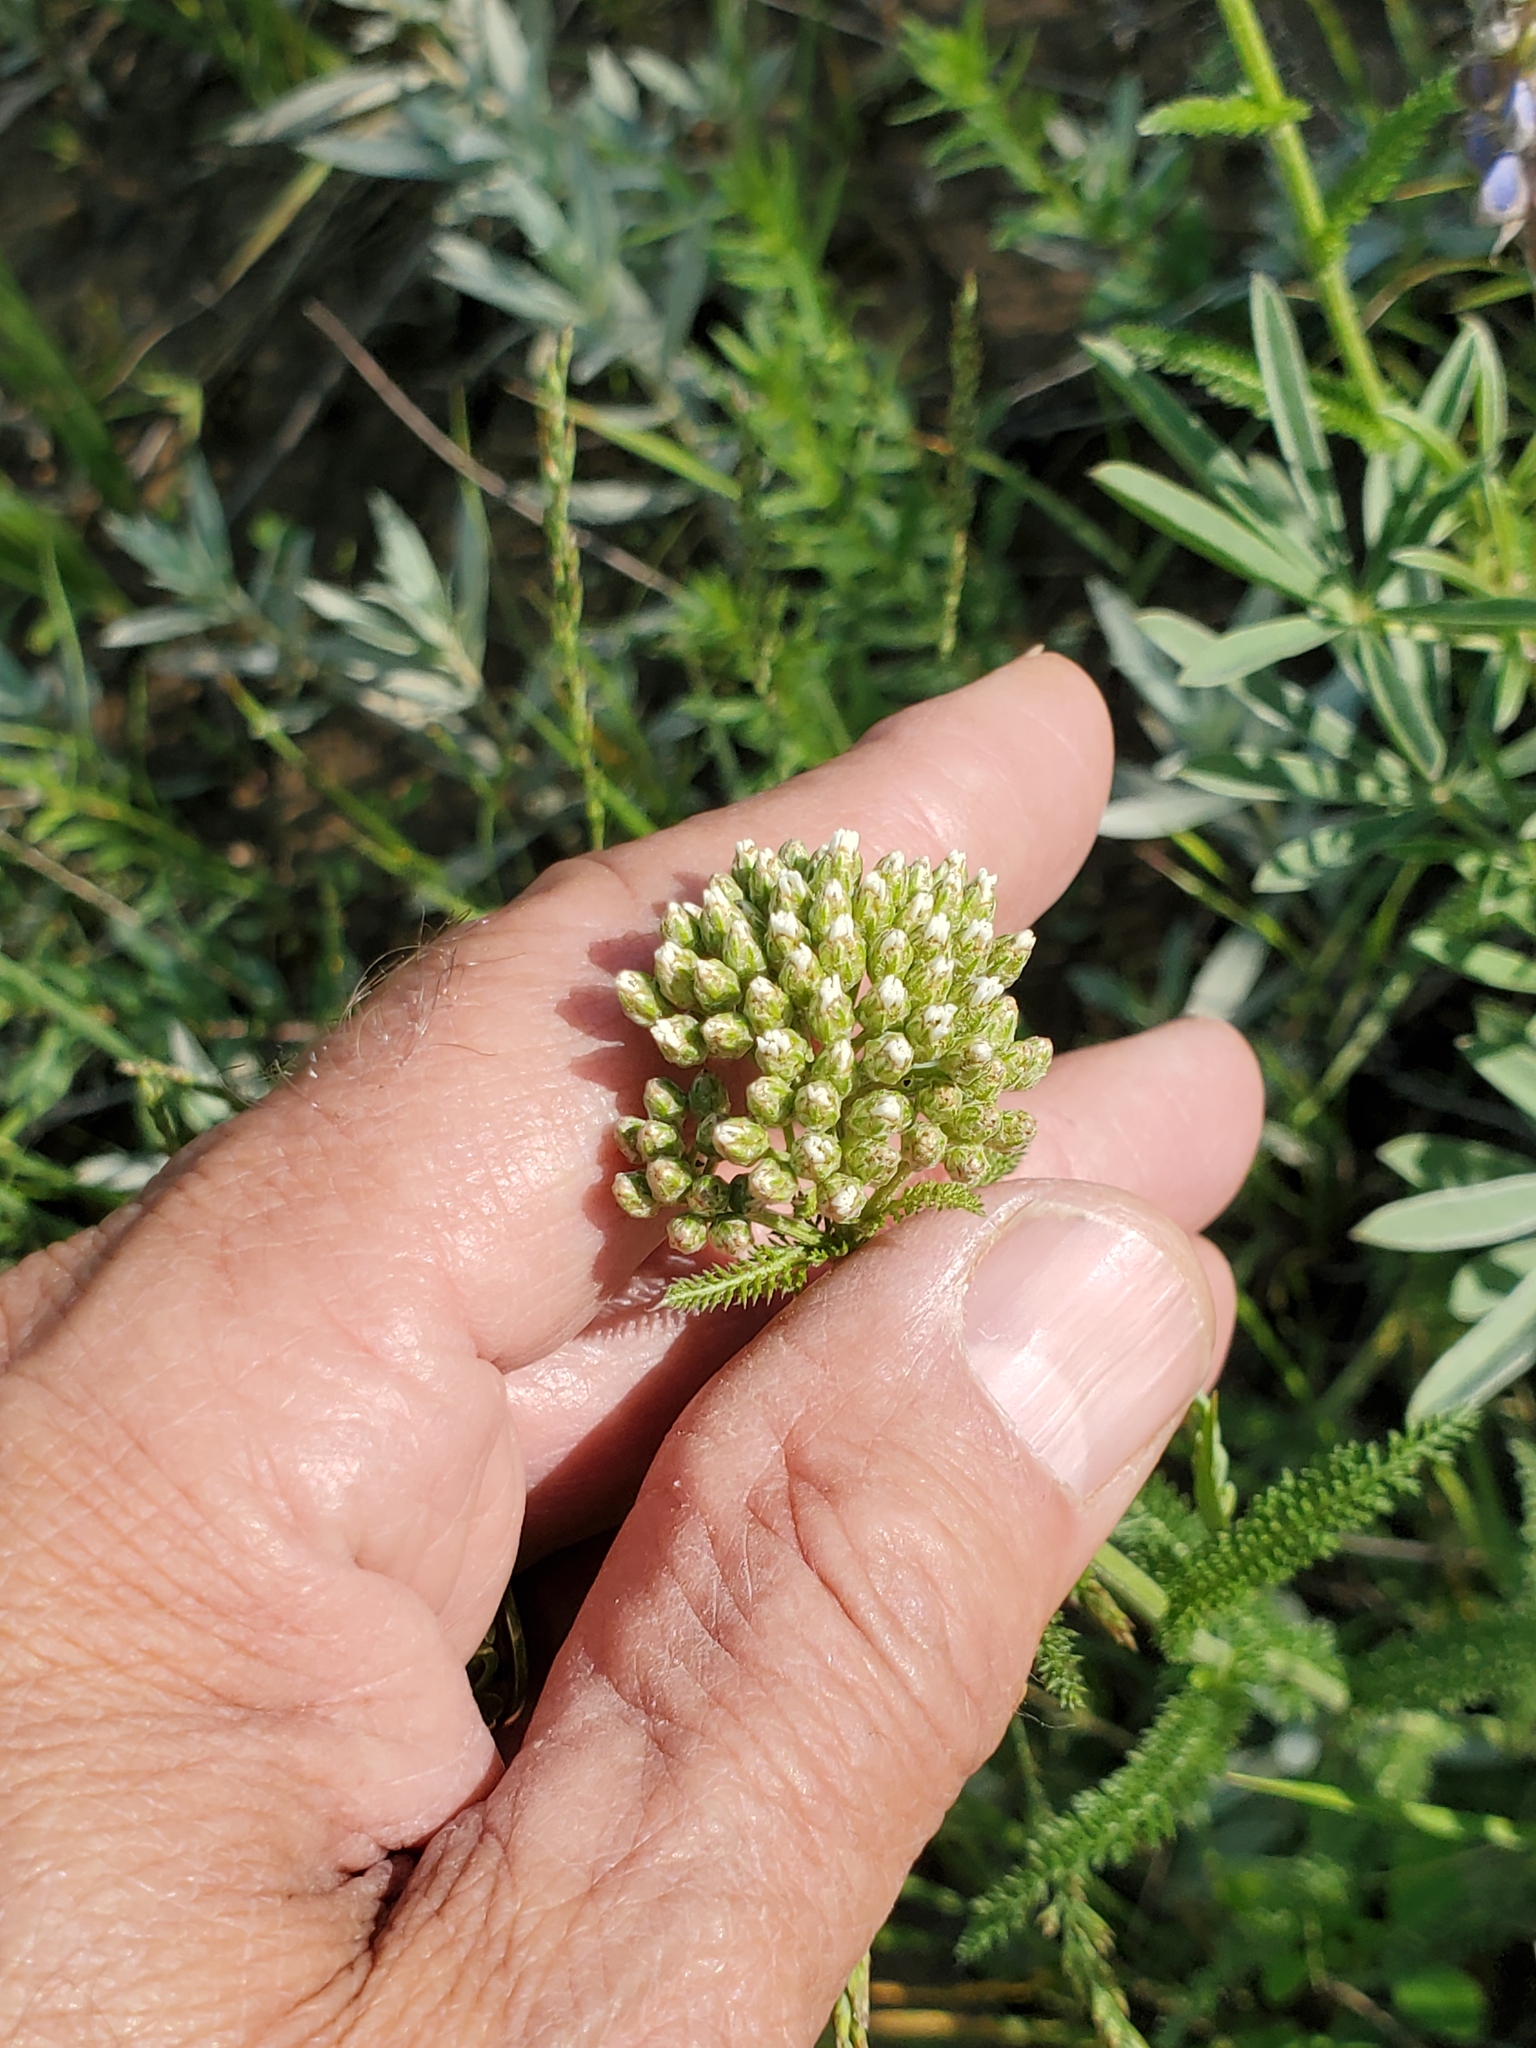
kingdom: Plantae
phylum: Tracheophyta
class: Magnoliopsida
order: Asterales
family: Asteraceae
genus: Achillea
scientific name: Achillea millefolium
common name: Yarrow
